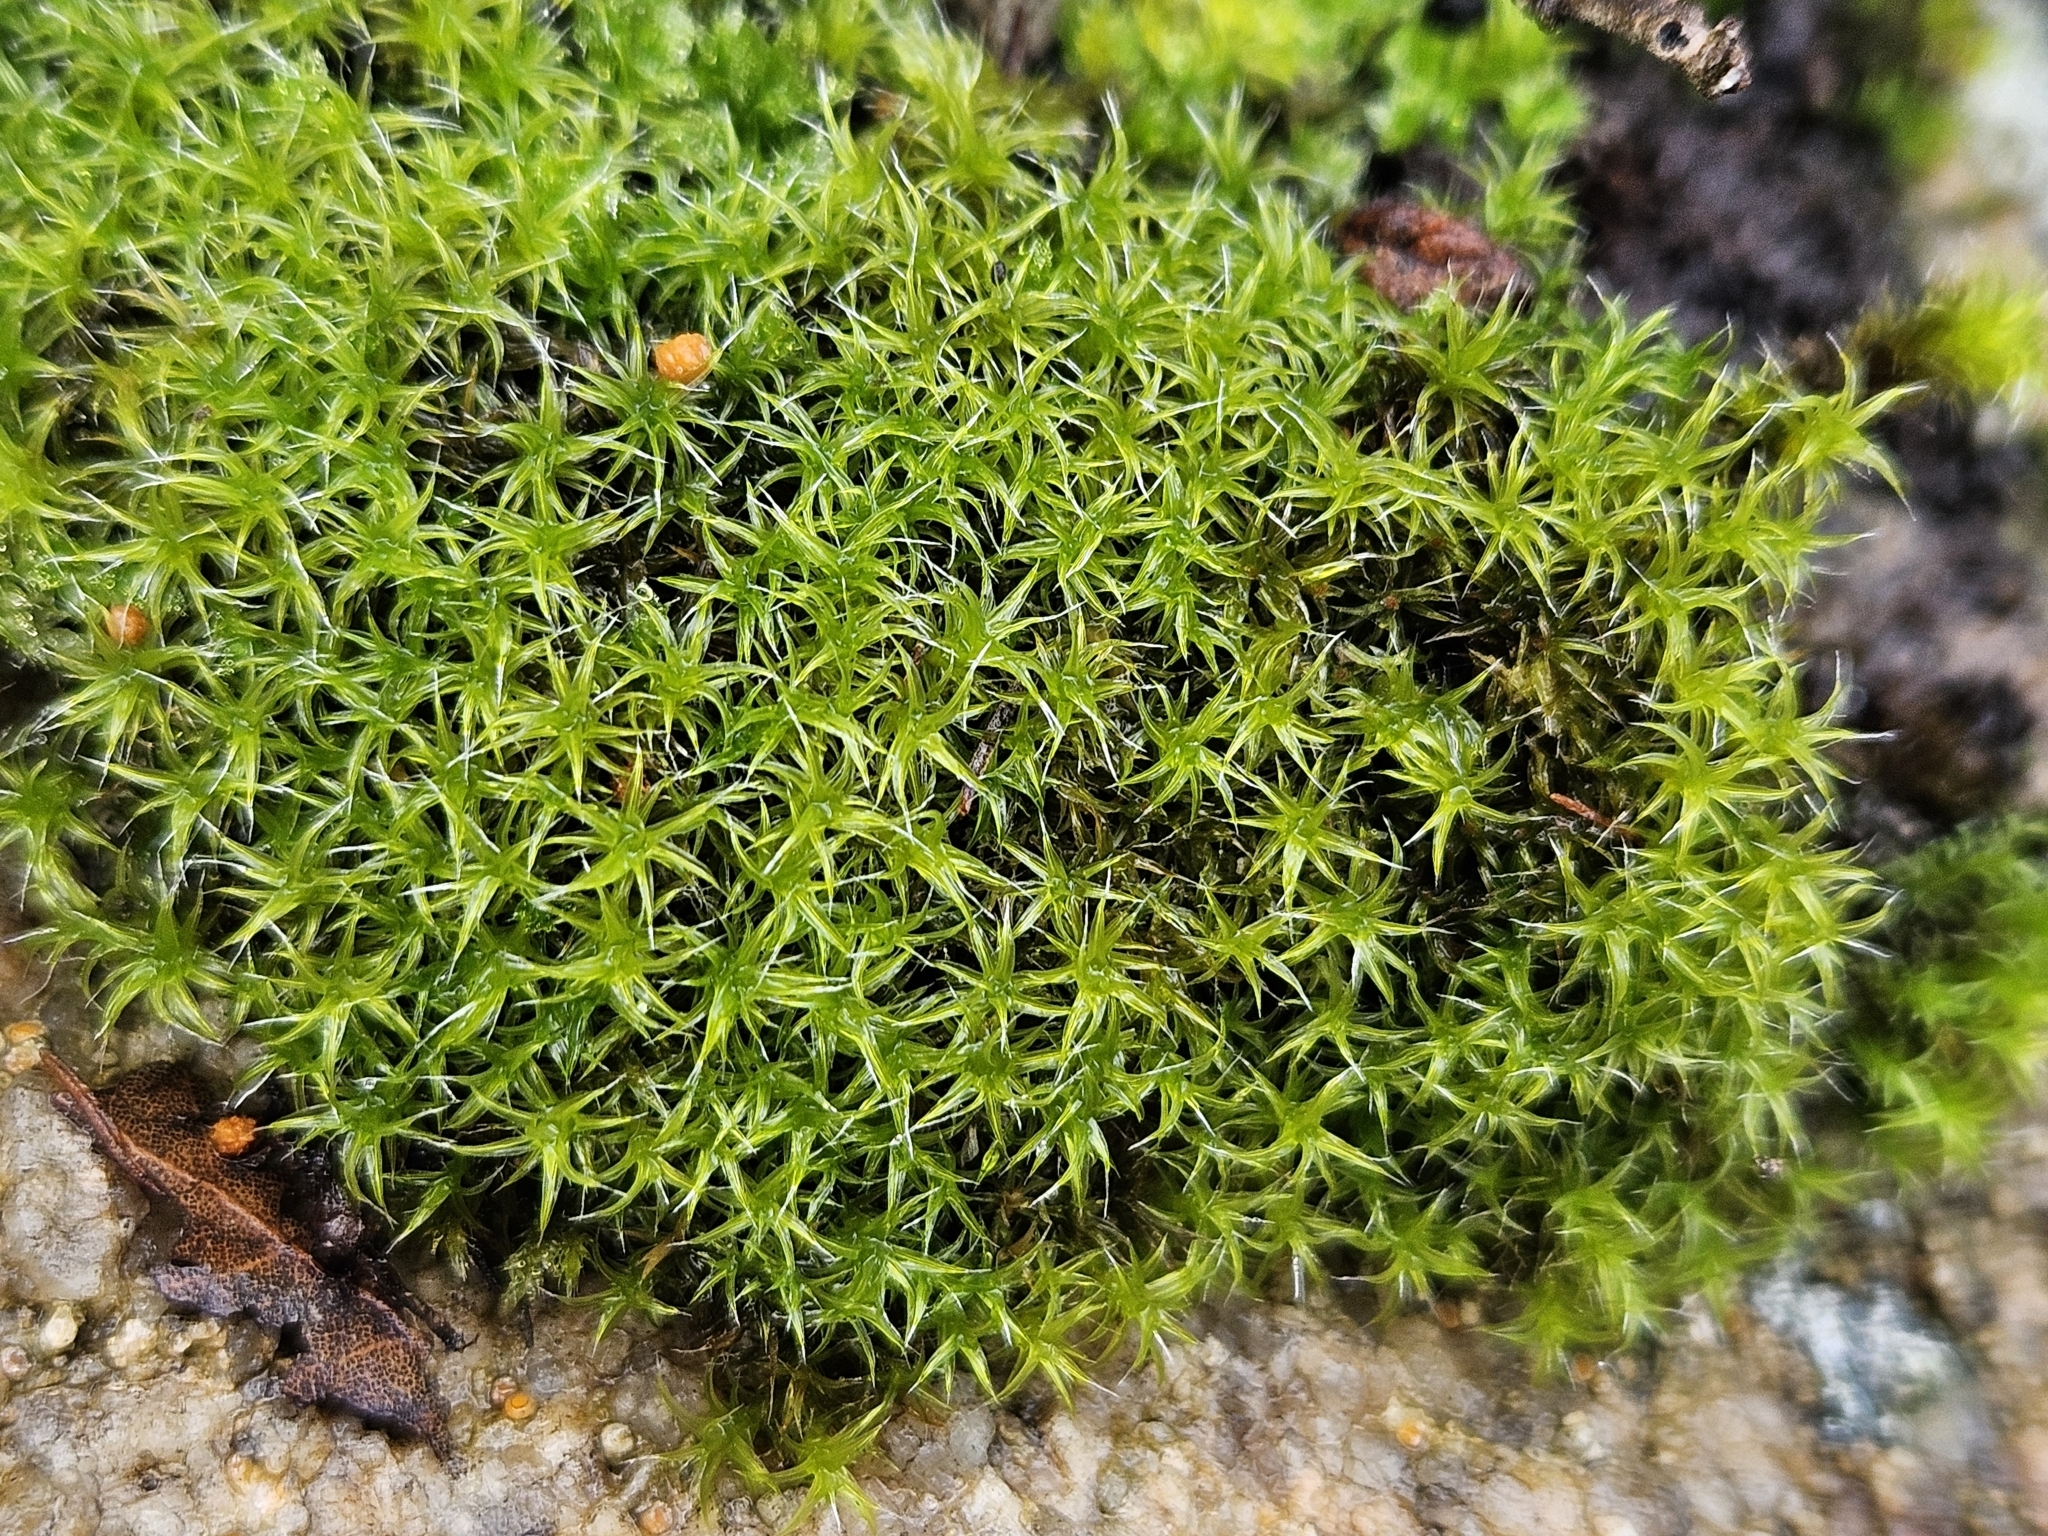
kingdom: Plantae
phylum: Bryophyta
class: Bryopsida
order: Grimmiales
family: Grimmiaceae
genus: Grimmia
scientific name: Grimmia lisae
